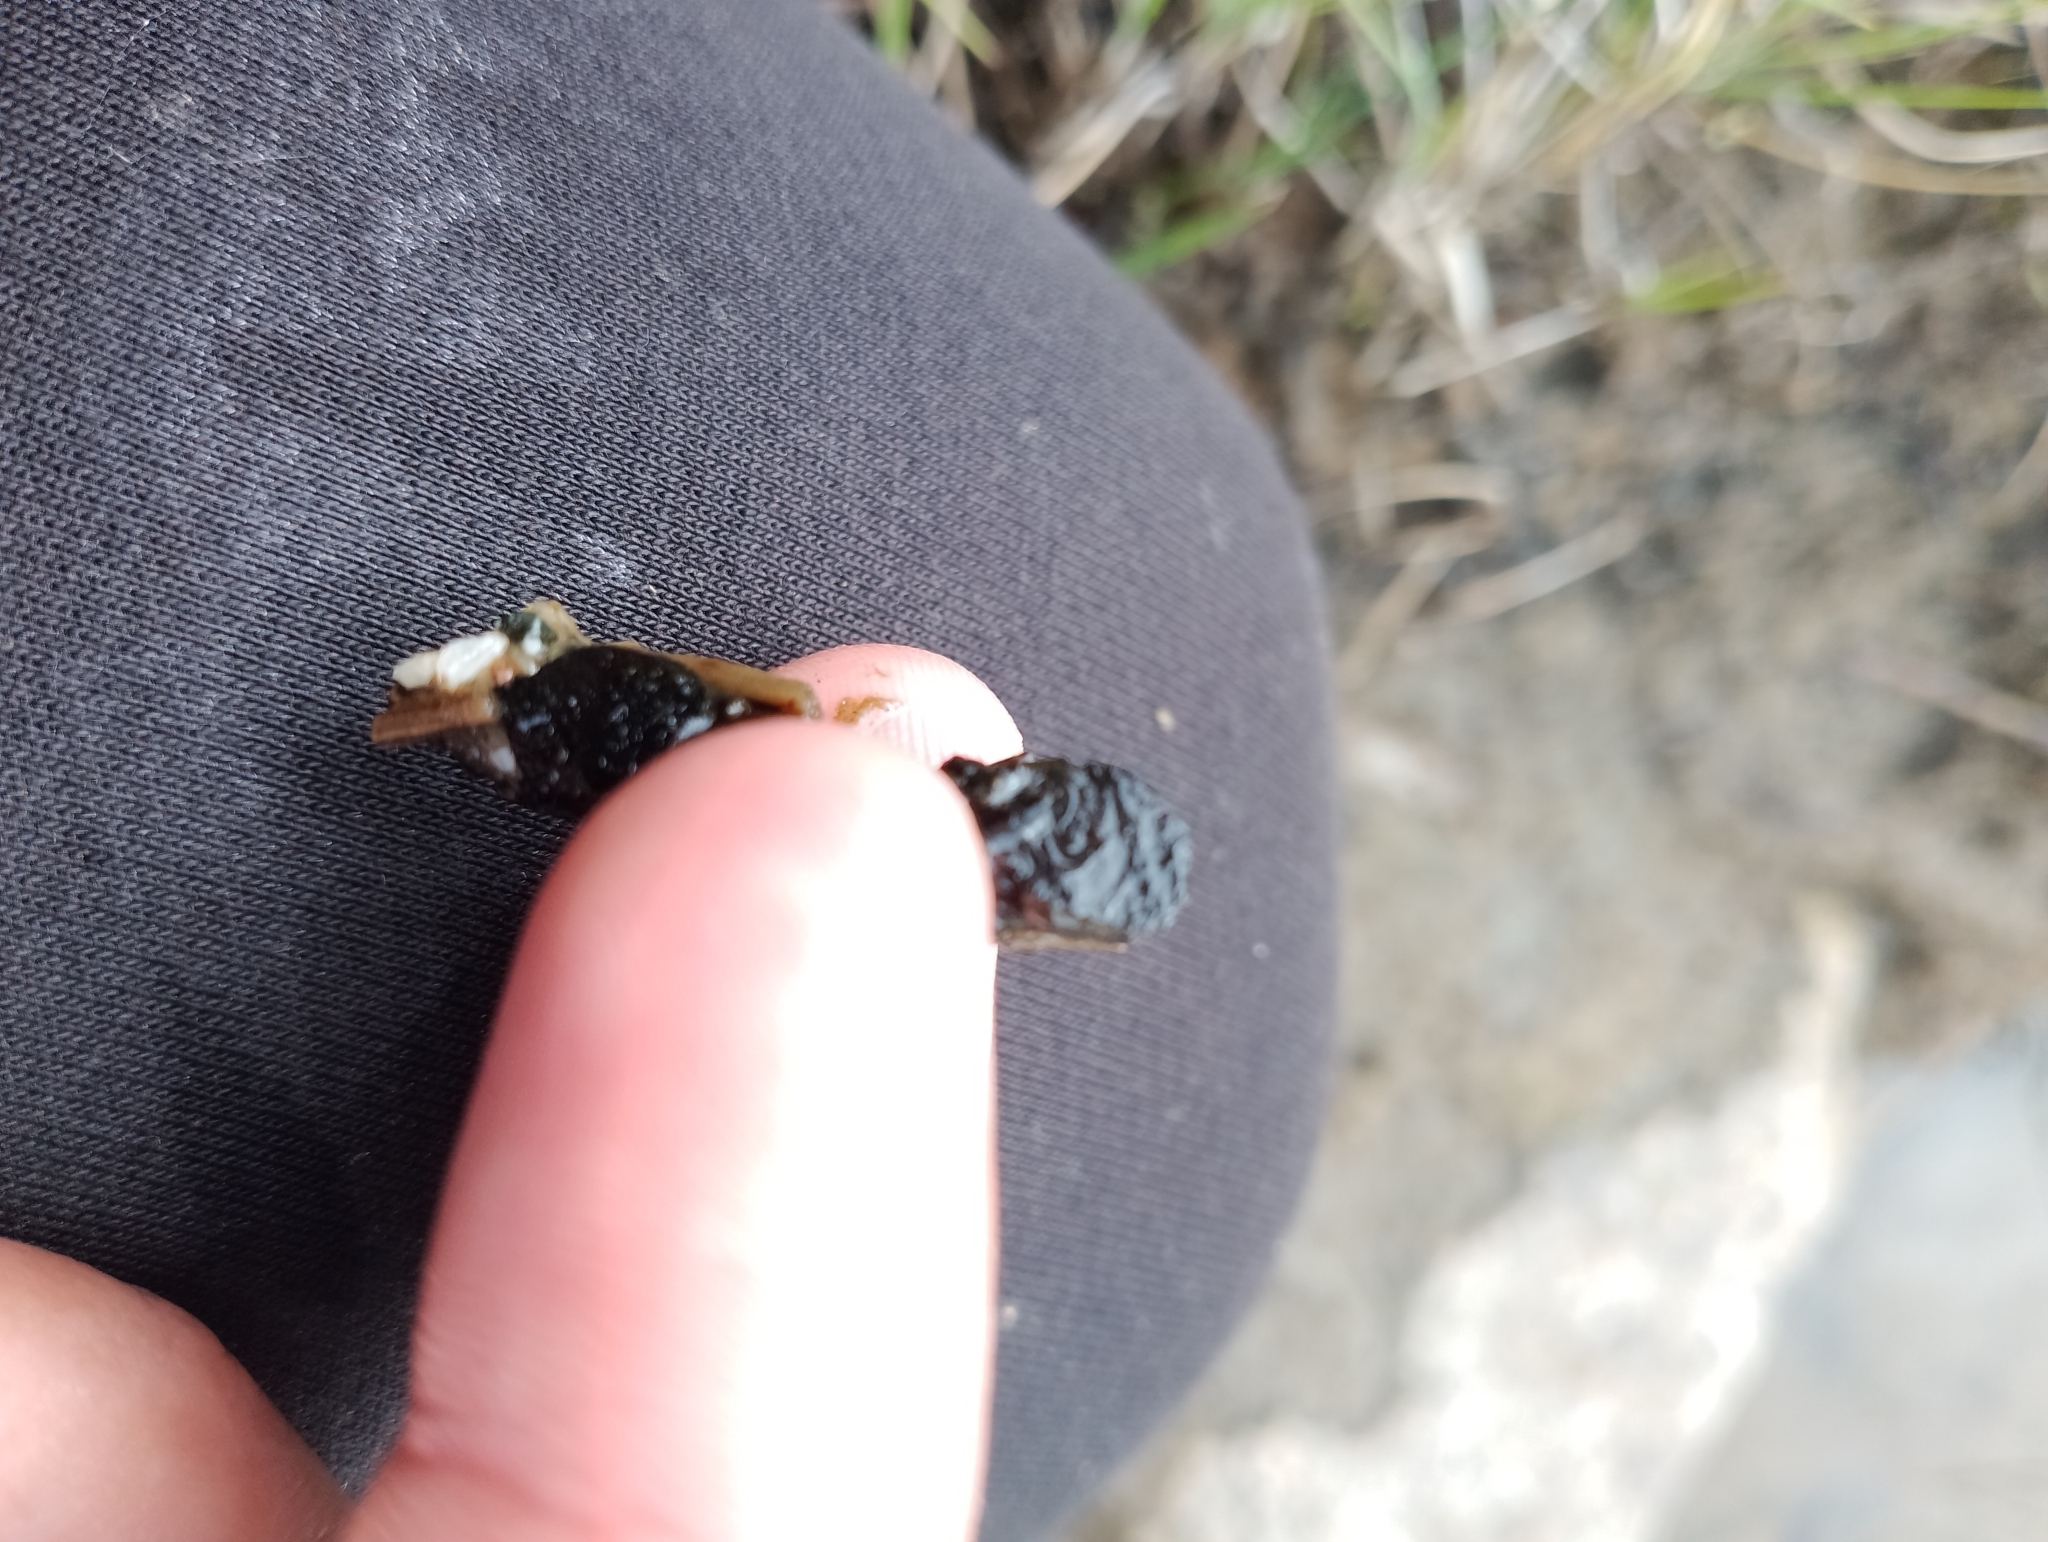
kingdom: Animalia
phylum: Arthropoda
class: Insecta
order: Trichoptera
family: Limnephilidae
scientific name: Limnephilidae
